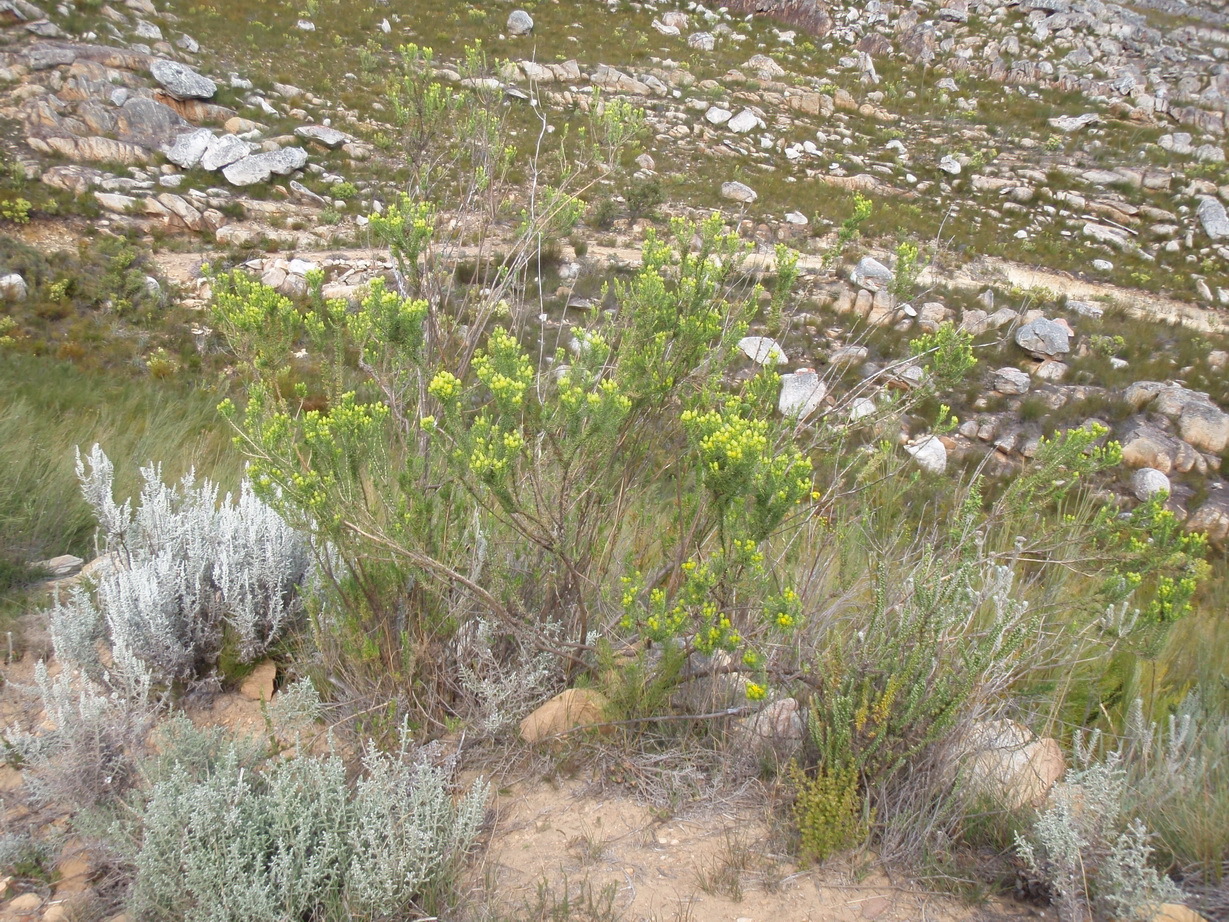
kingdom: Plantae
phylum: Tracheophyta
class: Magnoliopsida
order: Asterales
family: Asteraceae
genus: Pteronia
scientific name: Pteronia camphorata
